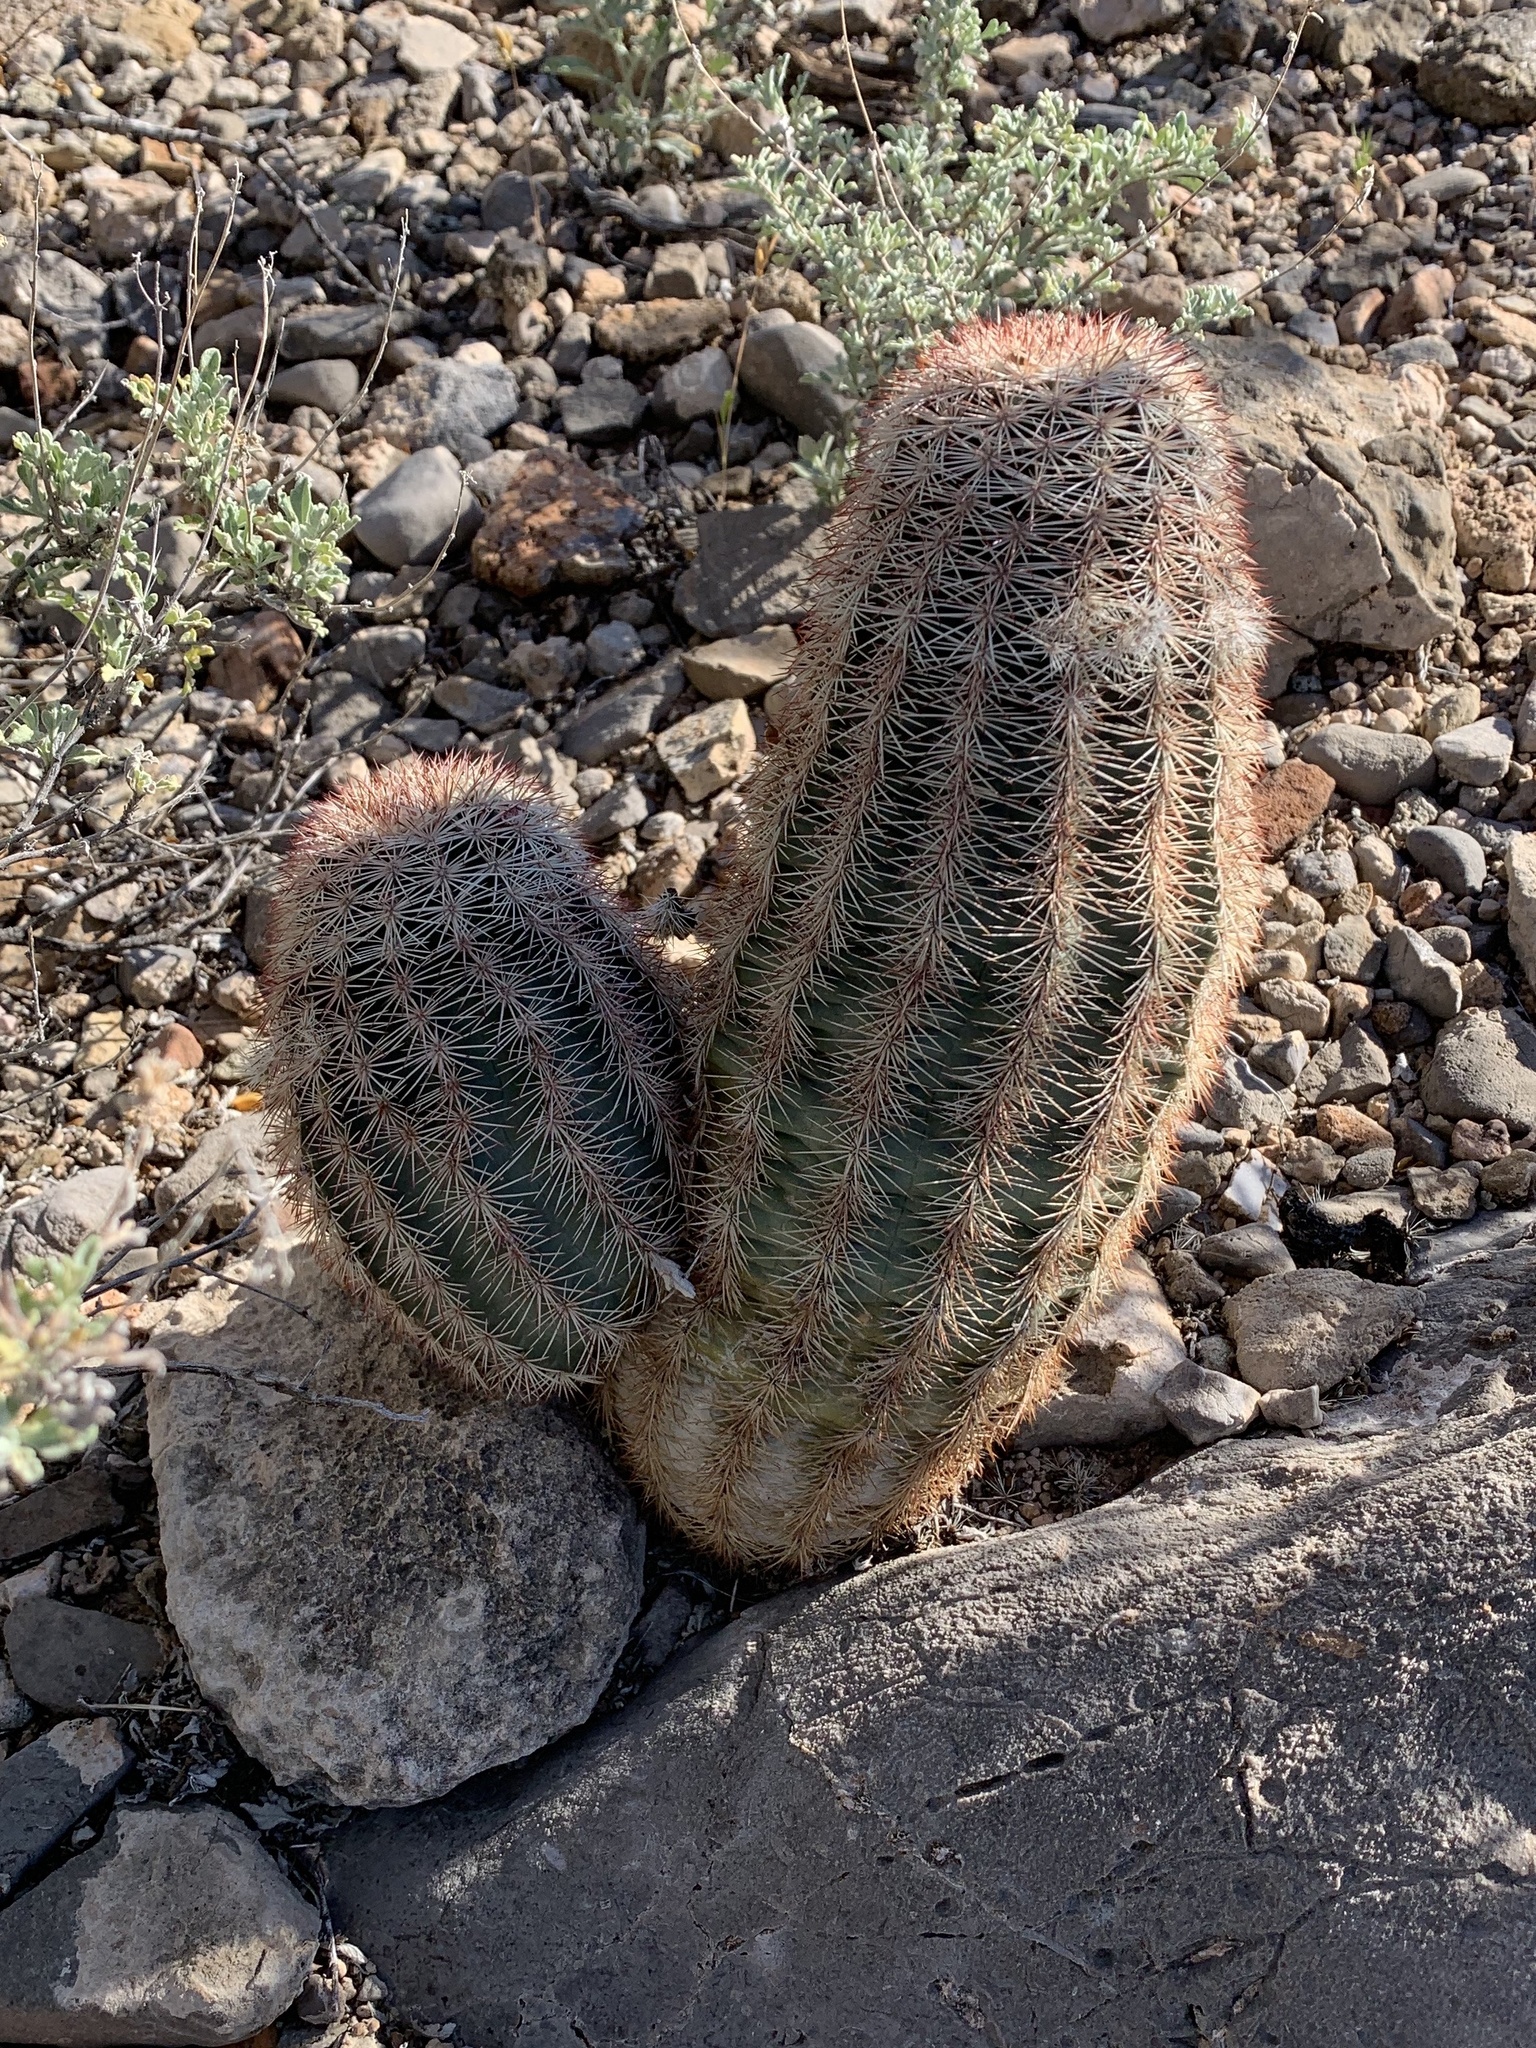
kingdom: Plantae
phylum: Tracheophyta
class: Magnoliopsida
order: Caryophyllales
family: Cactaceae
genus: Echinocereus
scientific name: Echinocereus dasyacanthus
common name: Spiny hedgehog cactus
